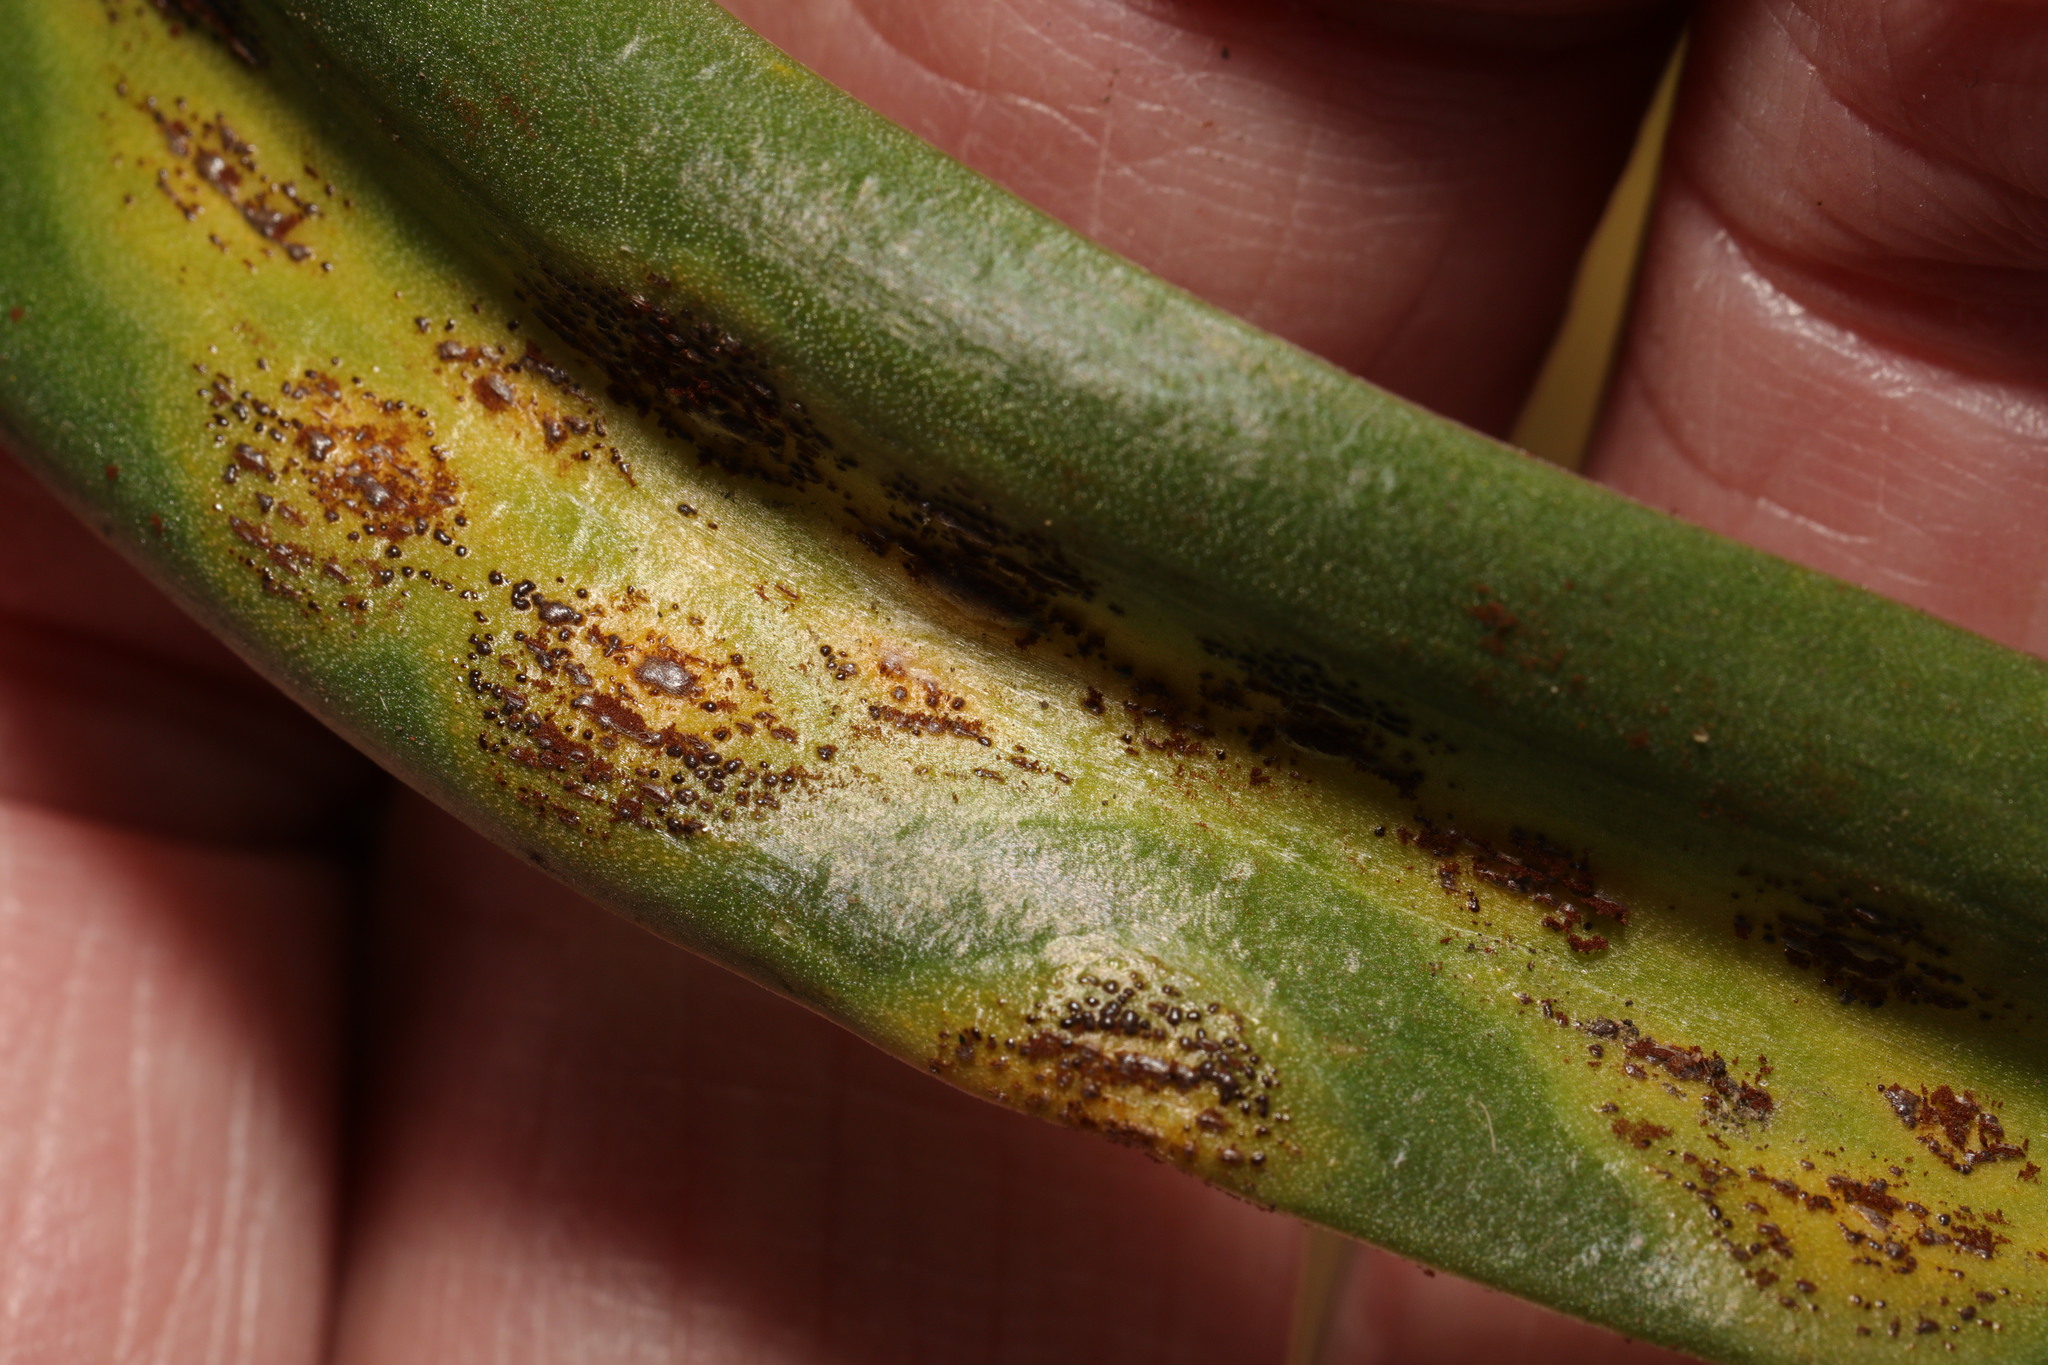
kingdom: Fungi
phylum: Basidiomycota
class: Pucciniomycetes
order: Pucciniales
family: Pucciniaceae
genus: Uromyces
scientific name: Uromyces hyacinthi
